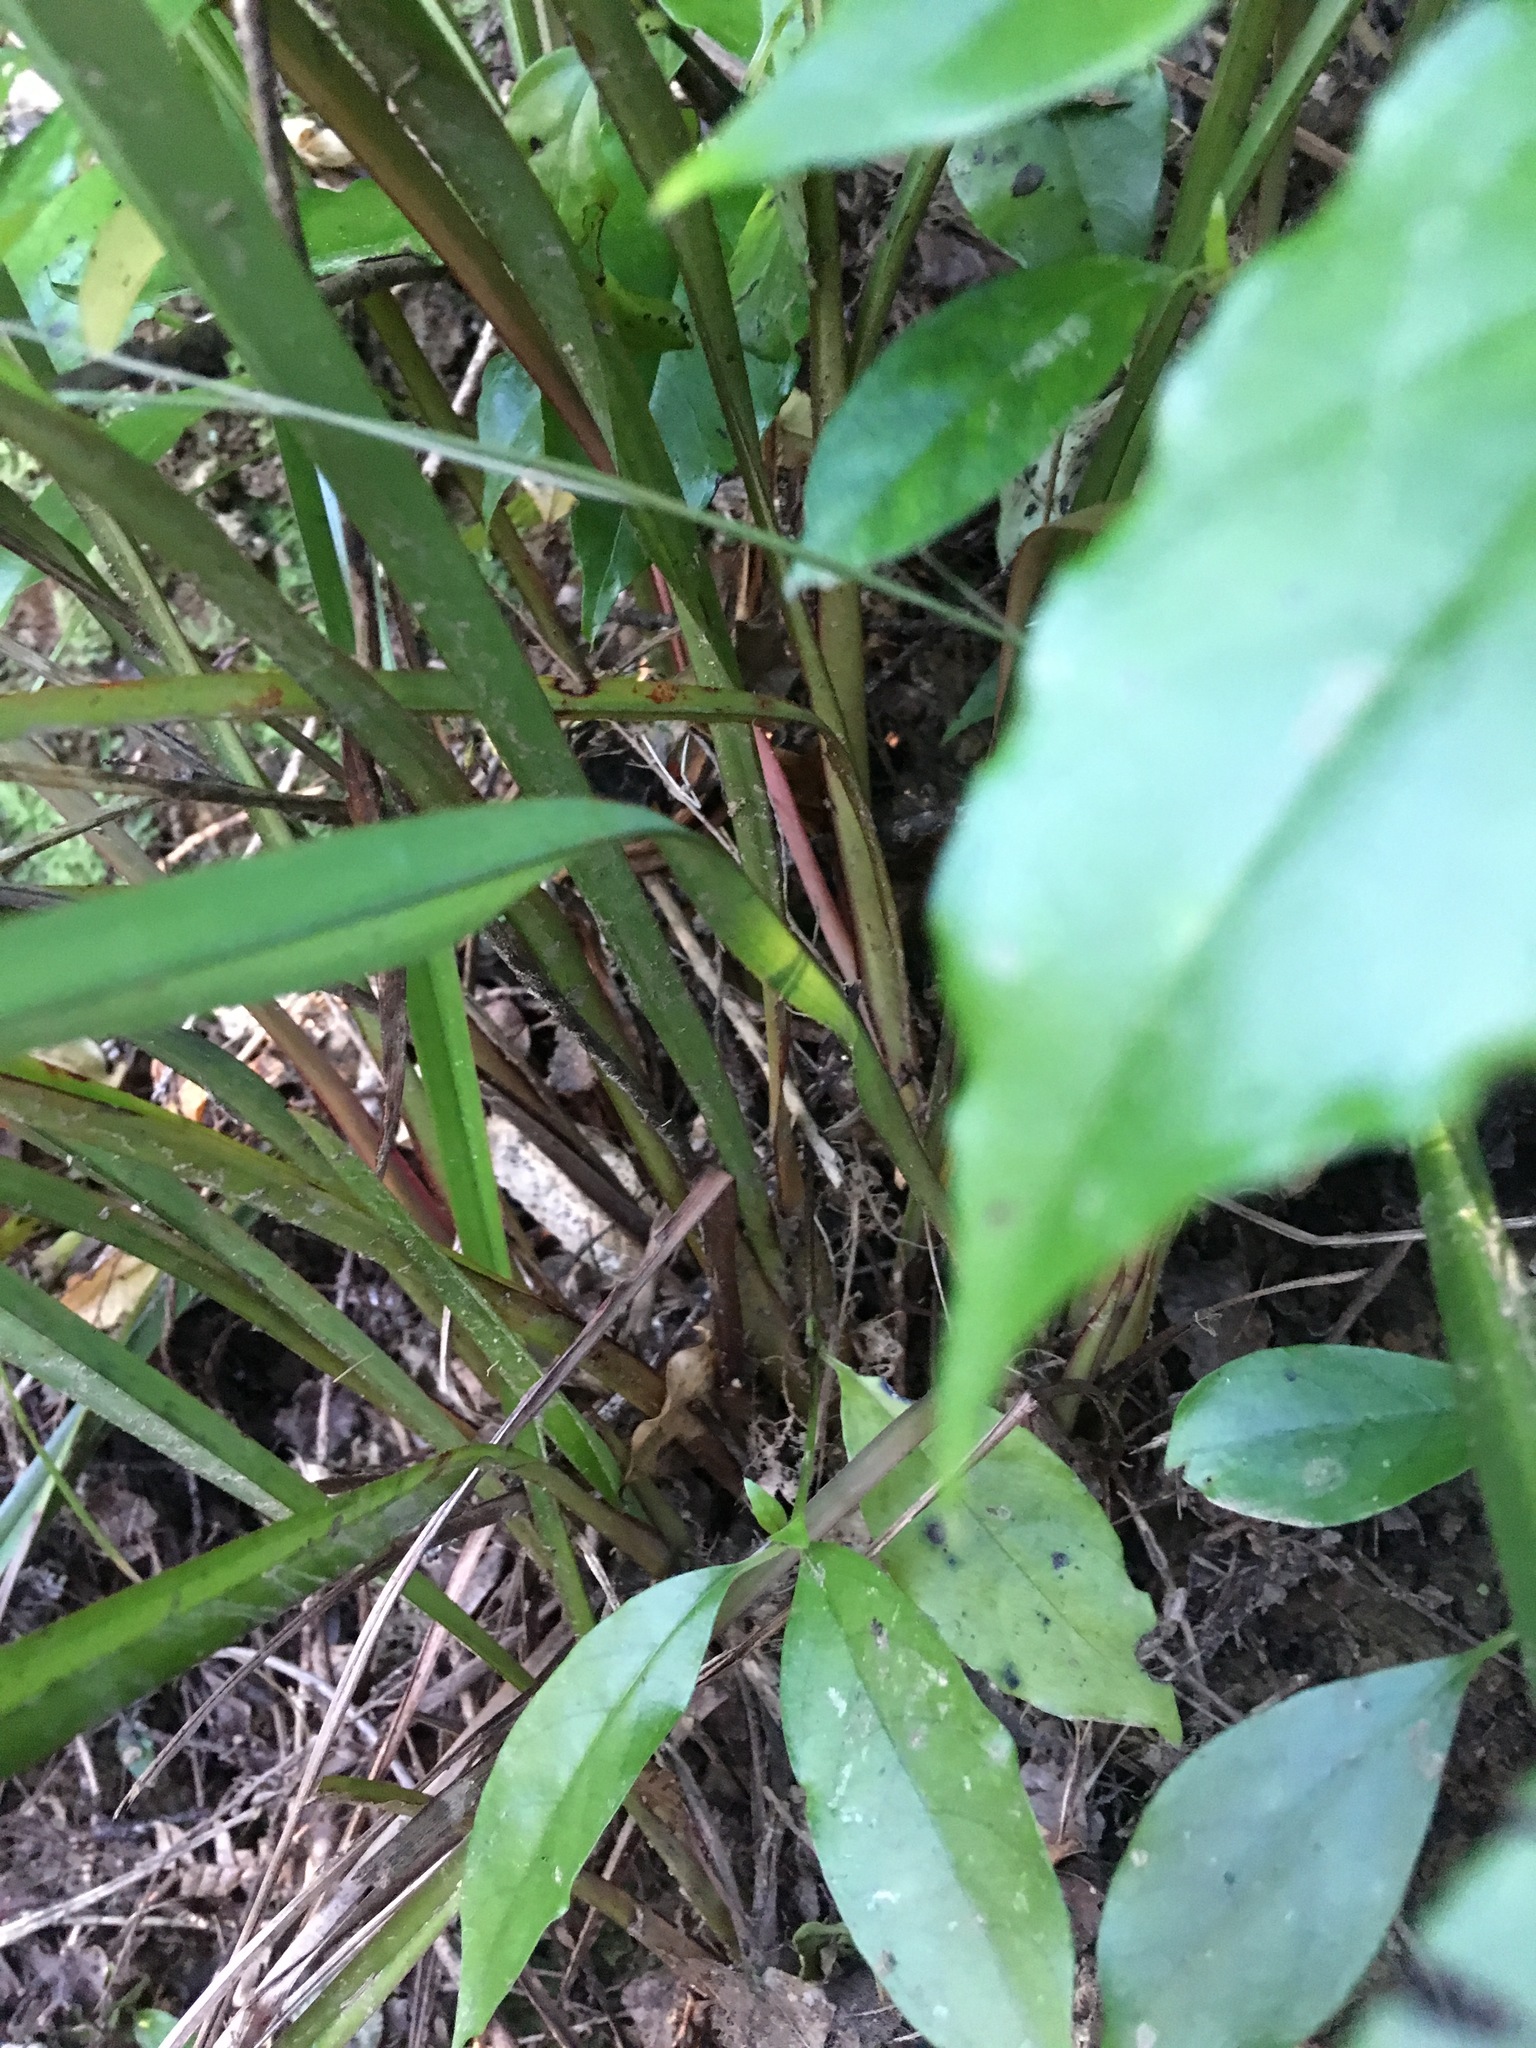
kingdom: Plantae
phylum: Tracheophyta
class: Liliopsida
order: Asparagales
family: Asphodelaceae
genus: Dianella
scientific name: Dianella nigra
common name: New zealand-blueberry
